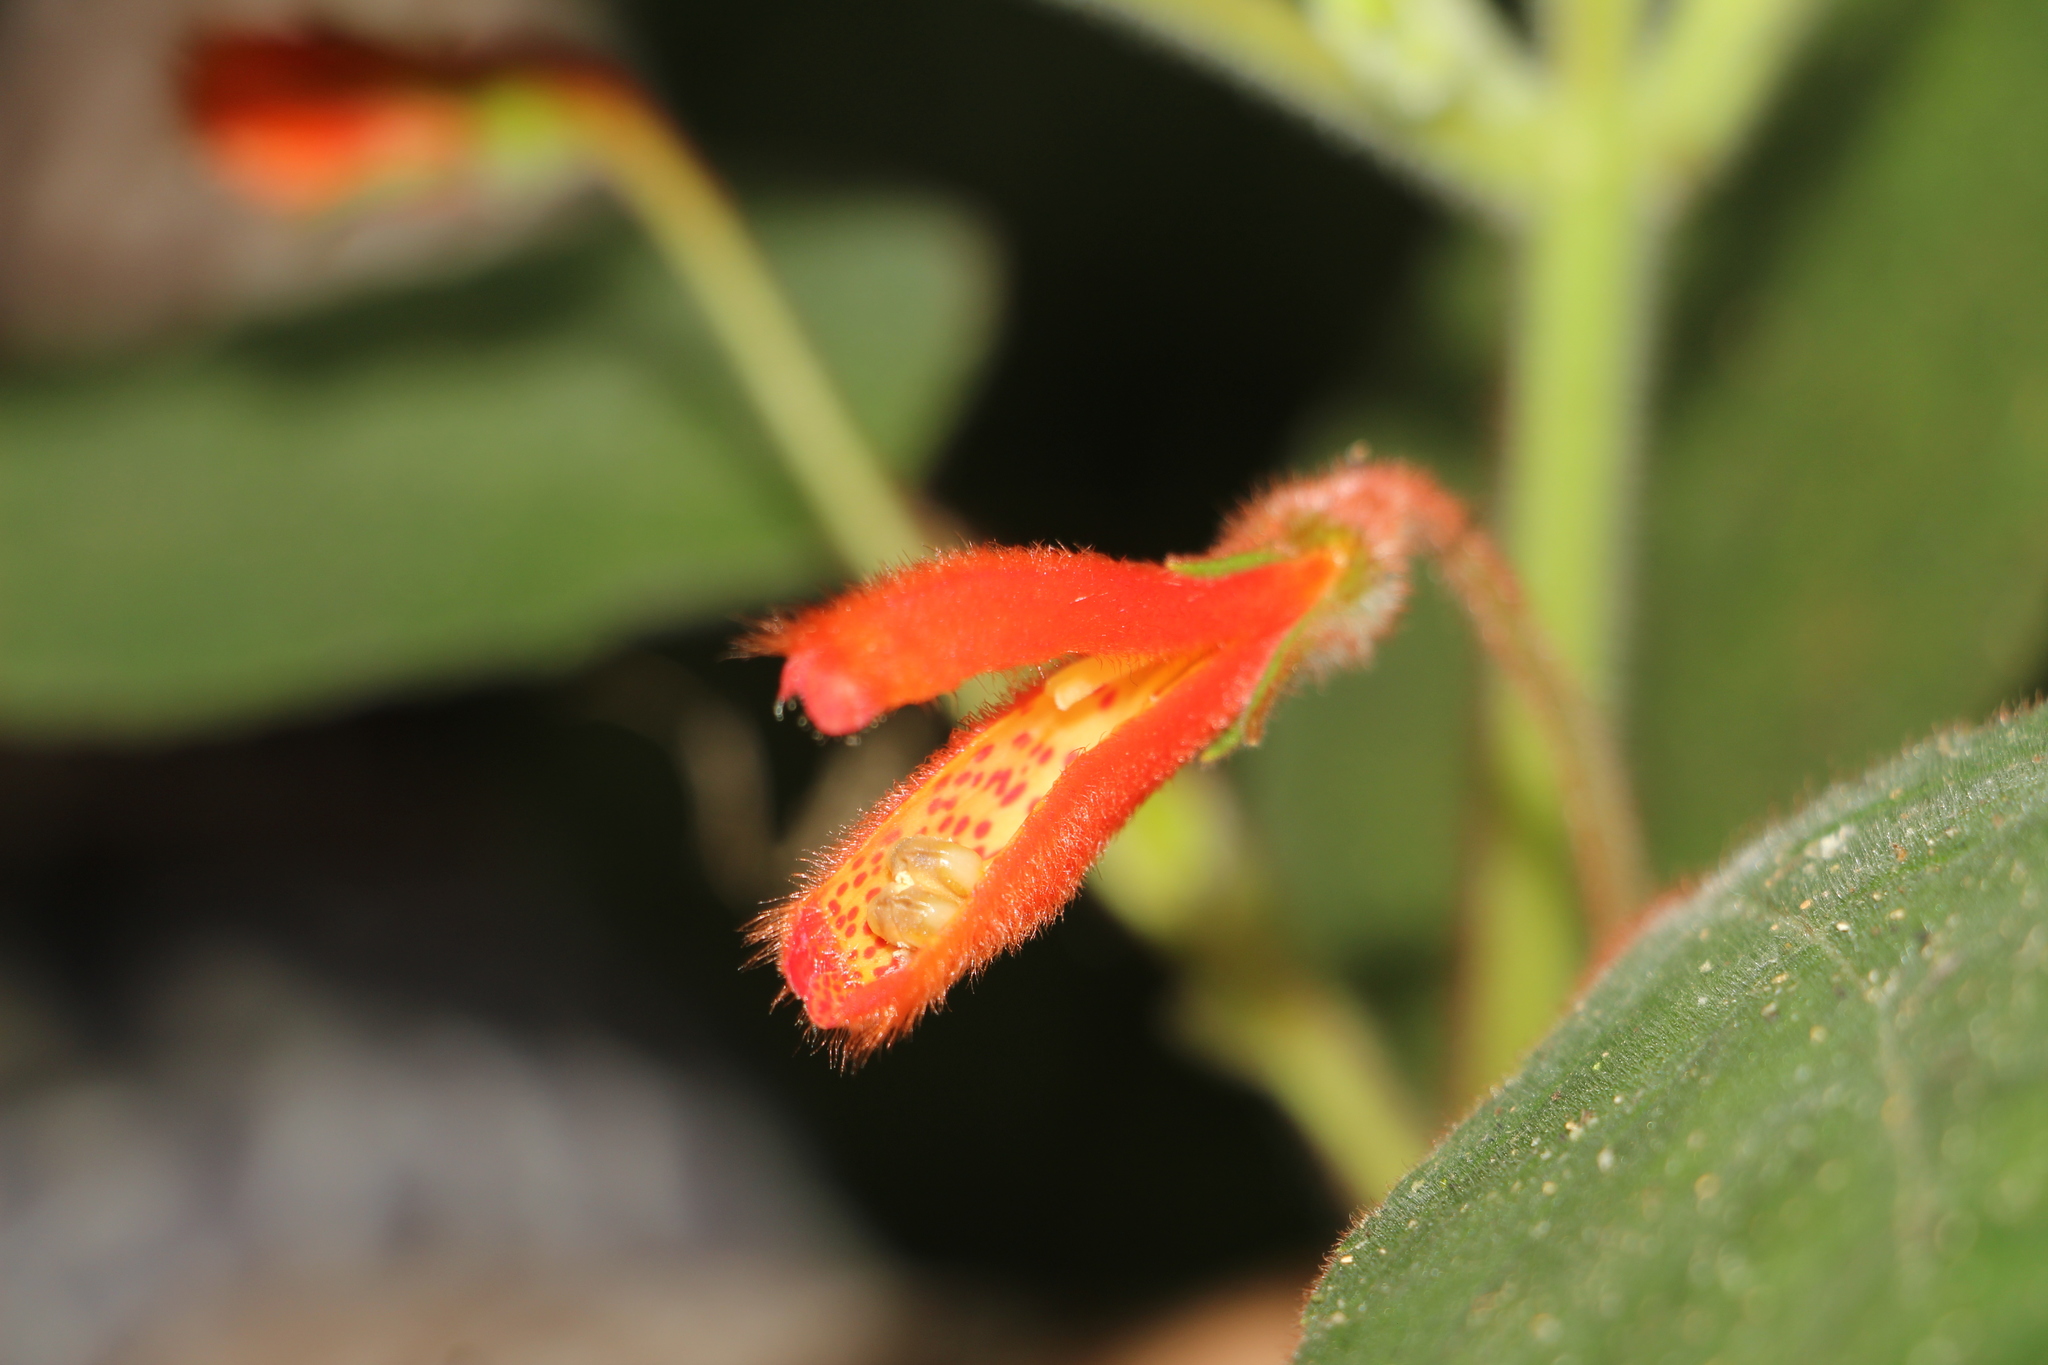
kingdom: Plantae
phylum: Tracheophyta
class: Magnoliopsida
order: Lamiales
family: Gesneriaceae
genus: Kohleria
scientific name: Kohleria hirsuta
